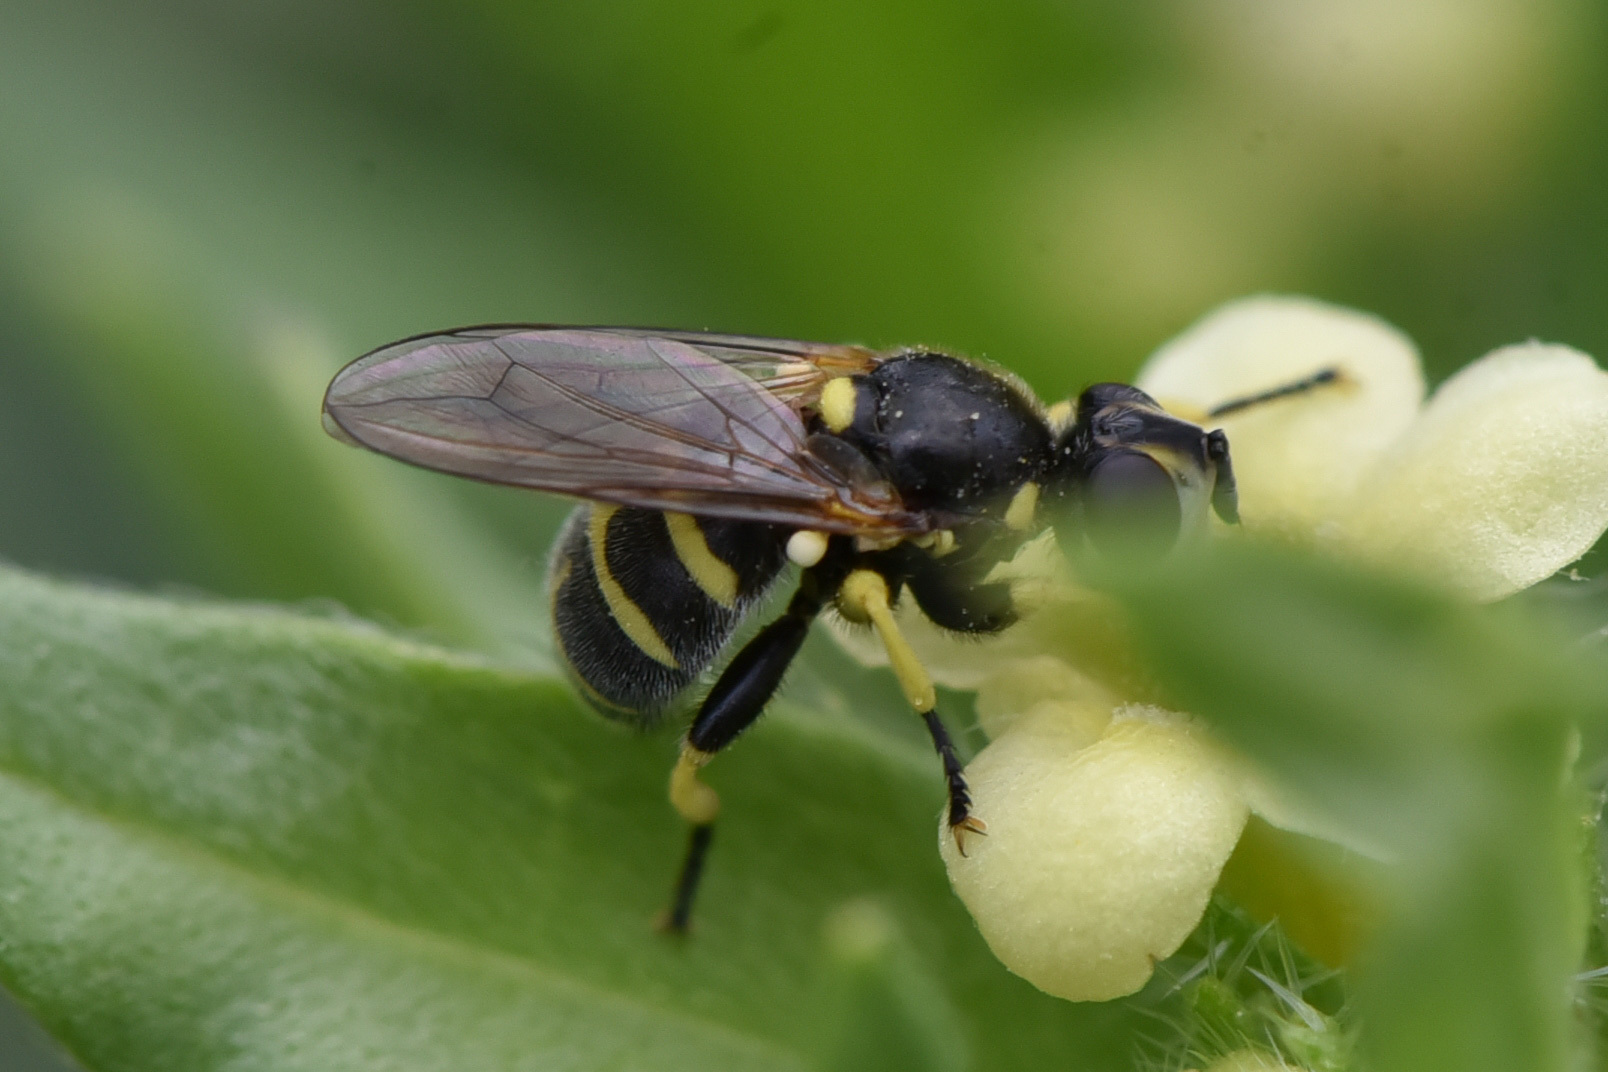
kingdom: Animalia
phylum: Arthropoda
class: Insecta
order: Diptera
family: Conopidae
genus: Dalmannia
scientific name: Dalmannia blaisdelli
